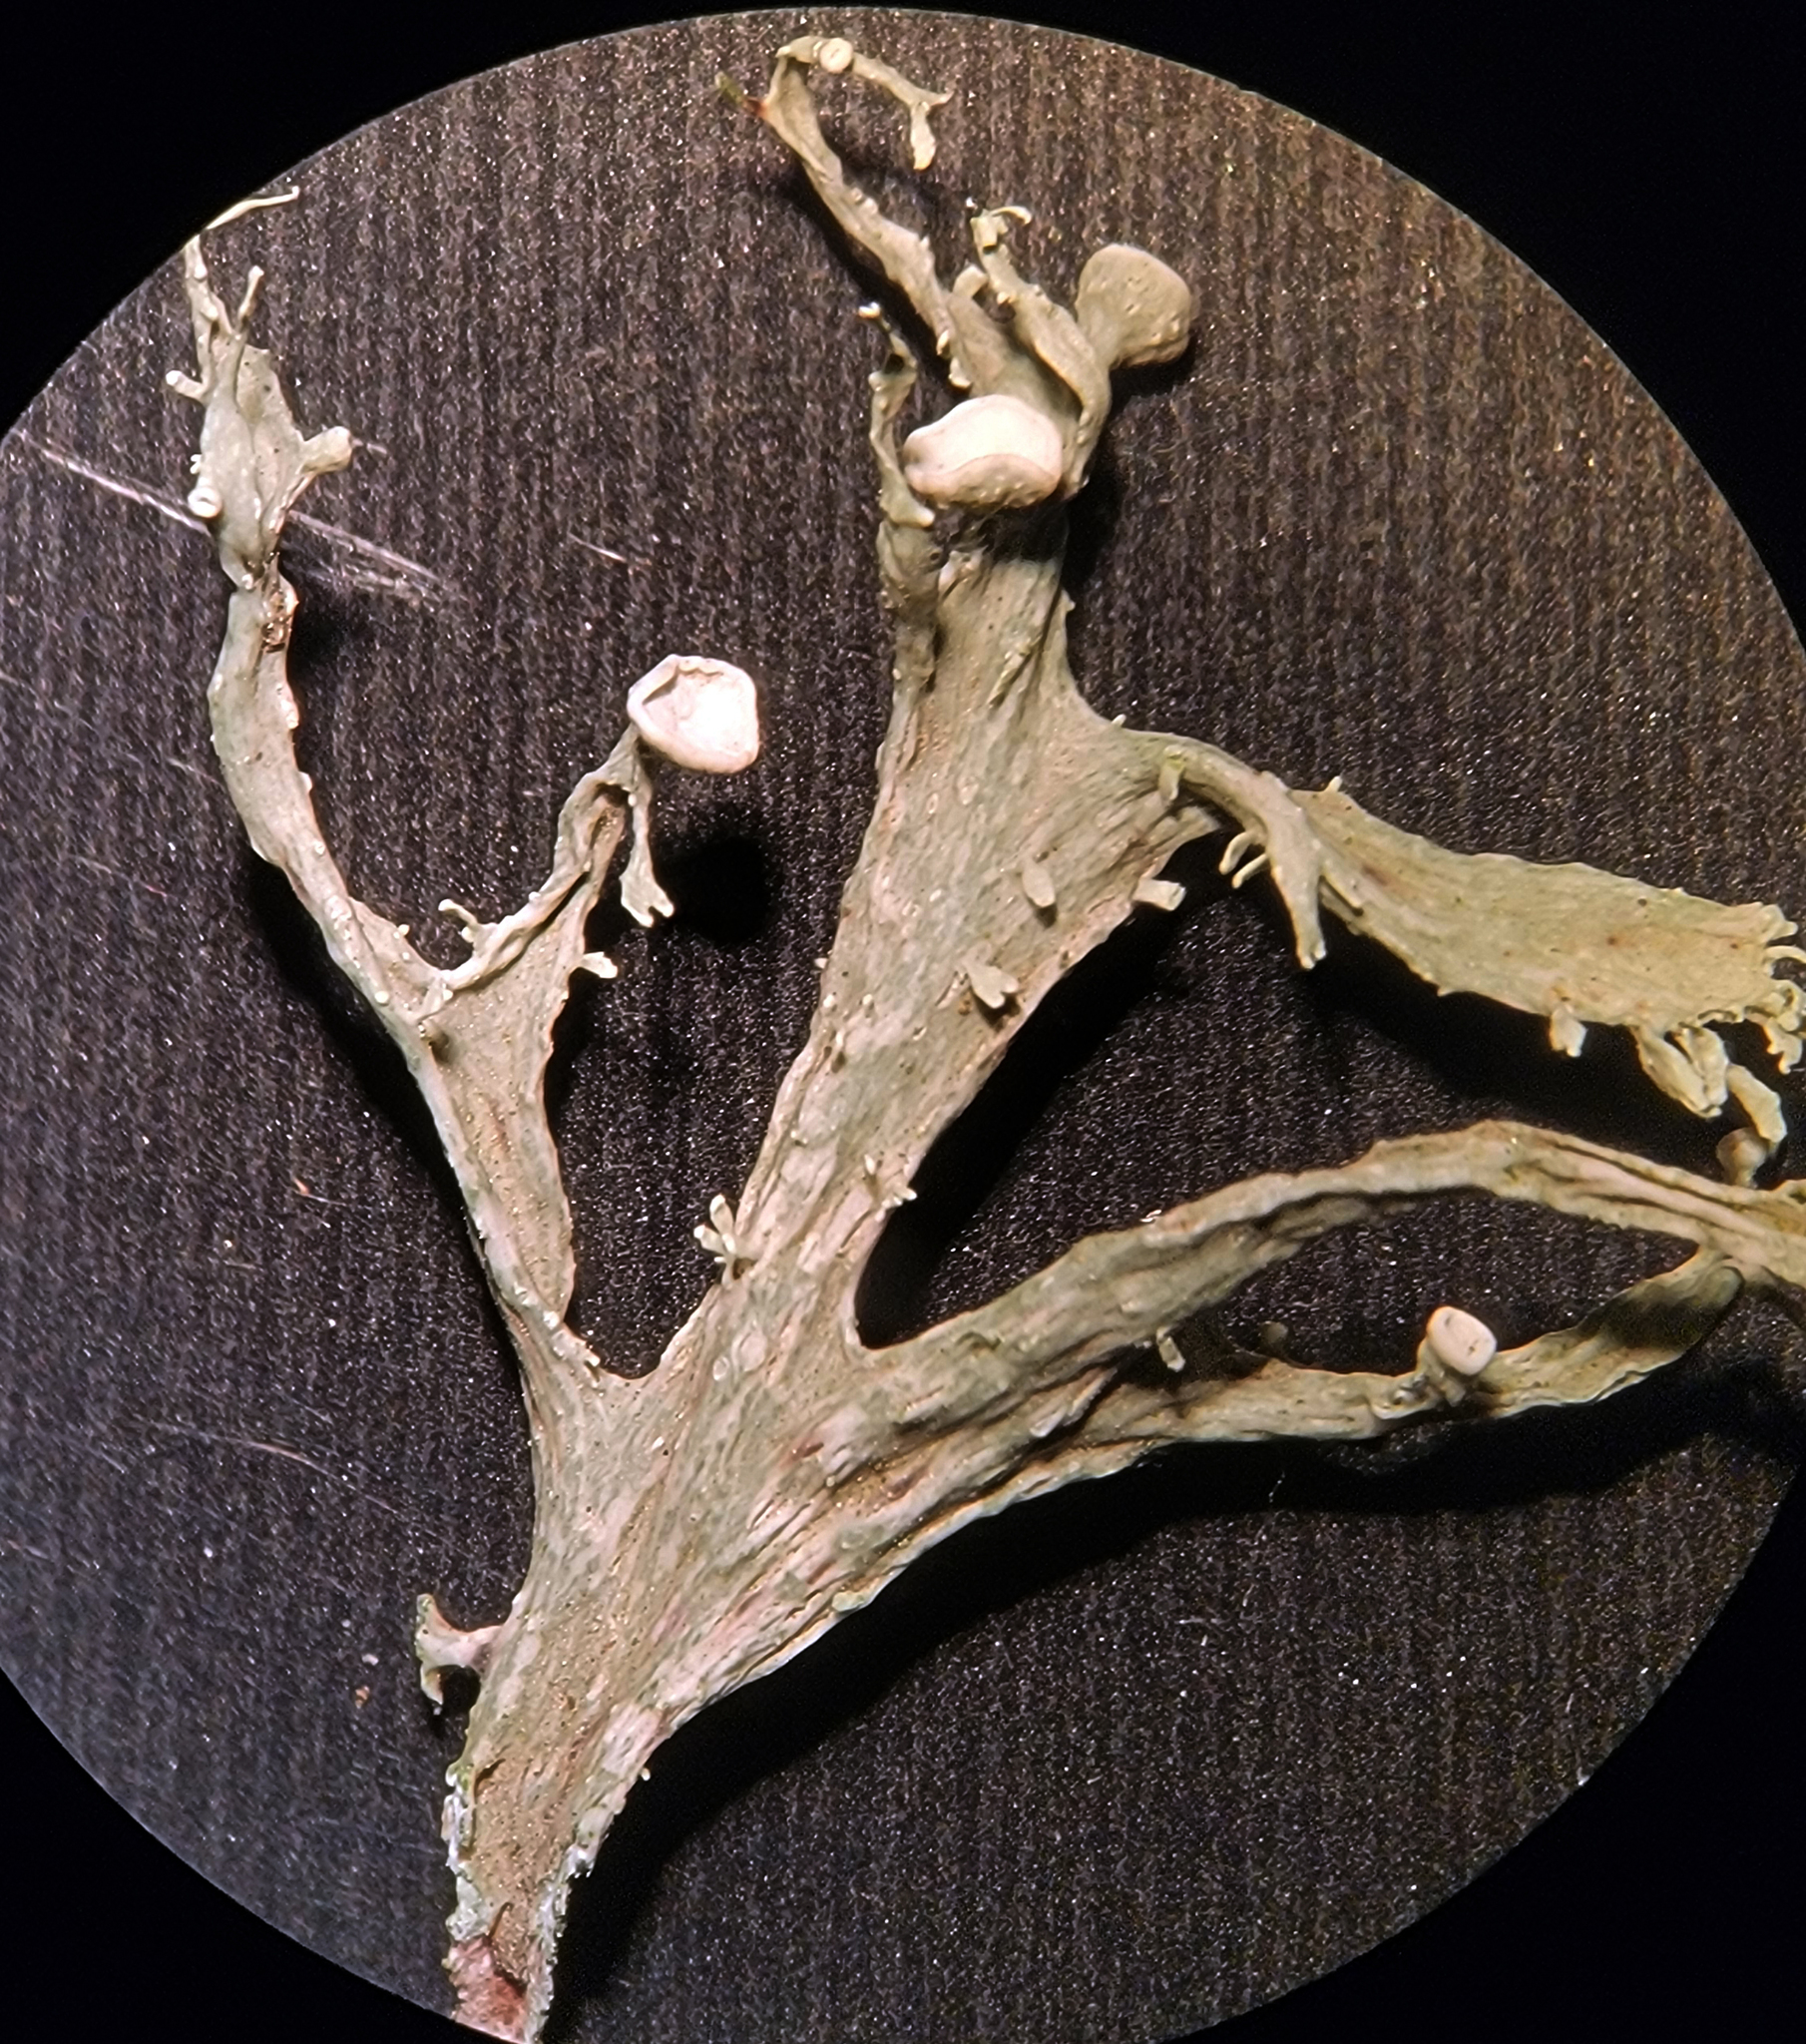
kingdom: Fungi
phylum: Ascomycota
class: Lecanoromycetes
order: Lecanorales
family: Ramalinaceae
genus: Ramalina
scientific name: Ramalina americana
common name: Sinewed bush lichen
